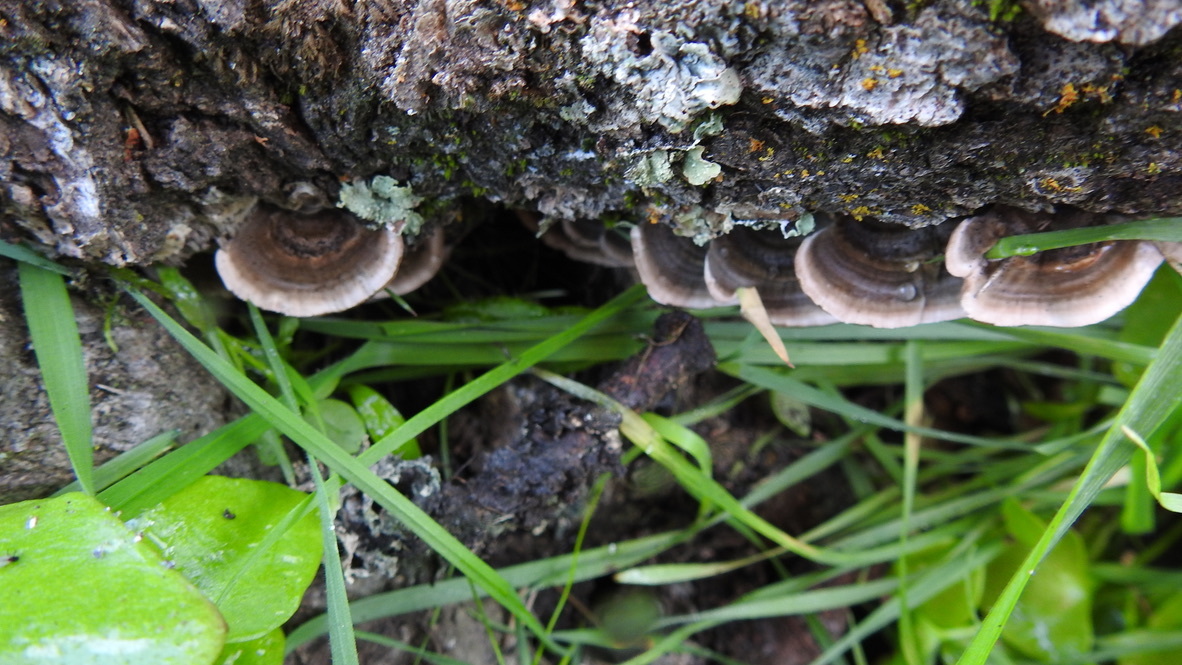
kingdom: Fungi
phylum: Basidiomycota
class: Agaricomycetes
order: Polyporales
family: Polyporaceae
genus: Trametes
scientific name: Trametes versicolor
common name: Turkeytail
